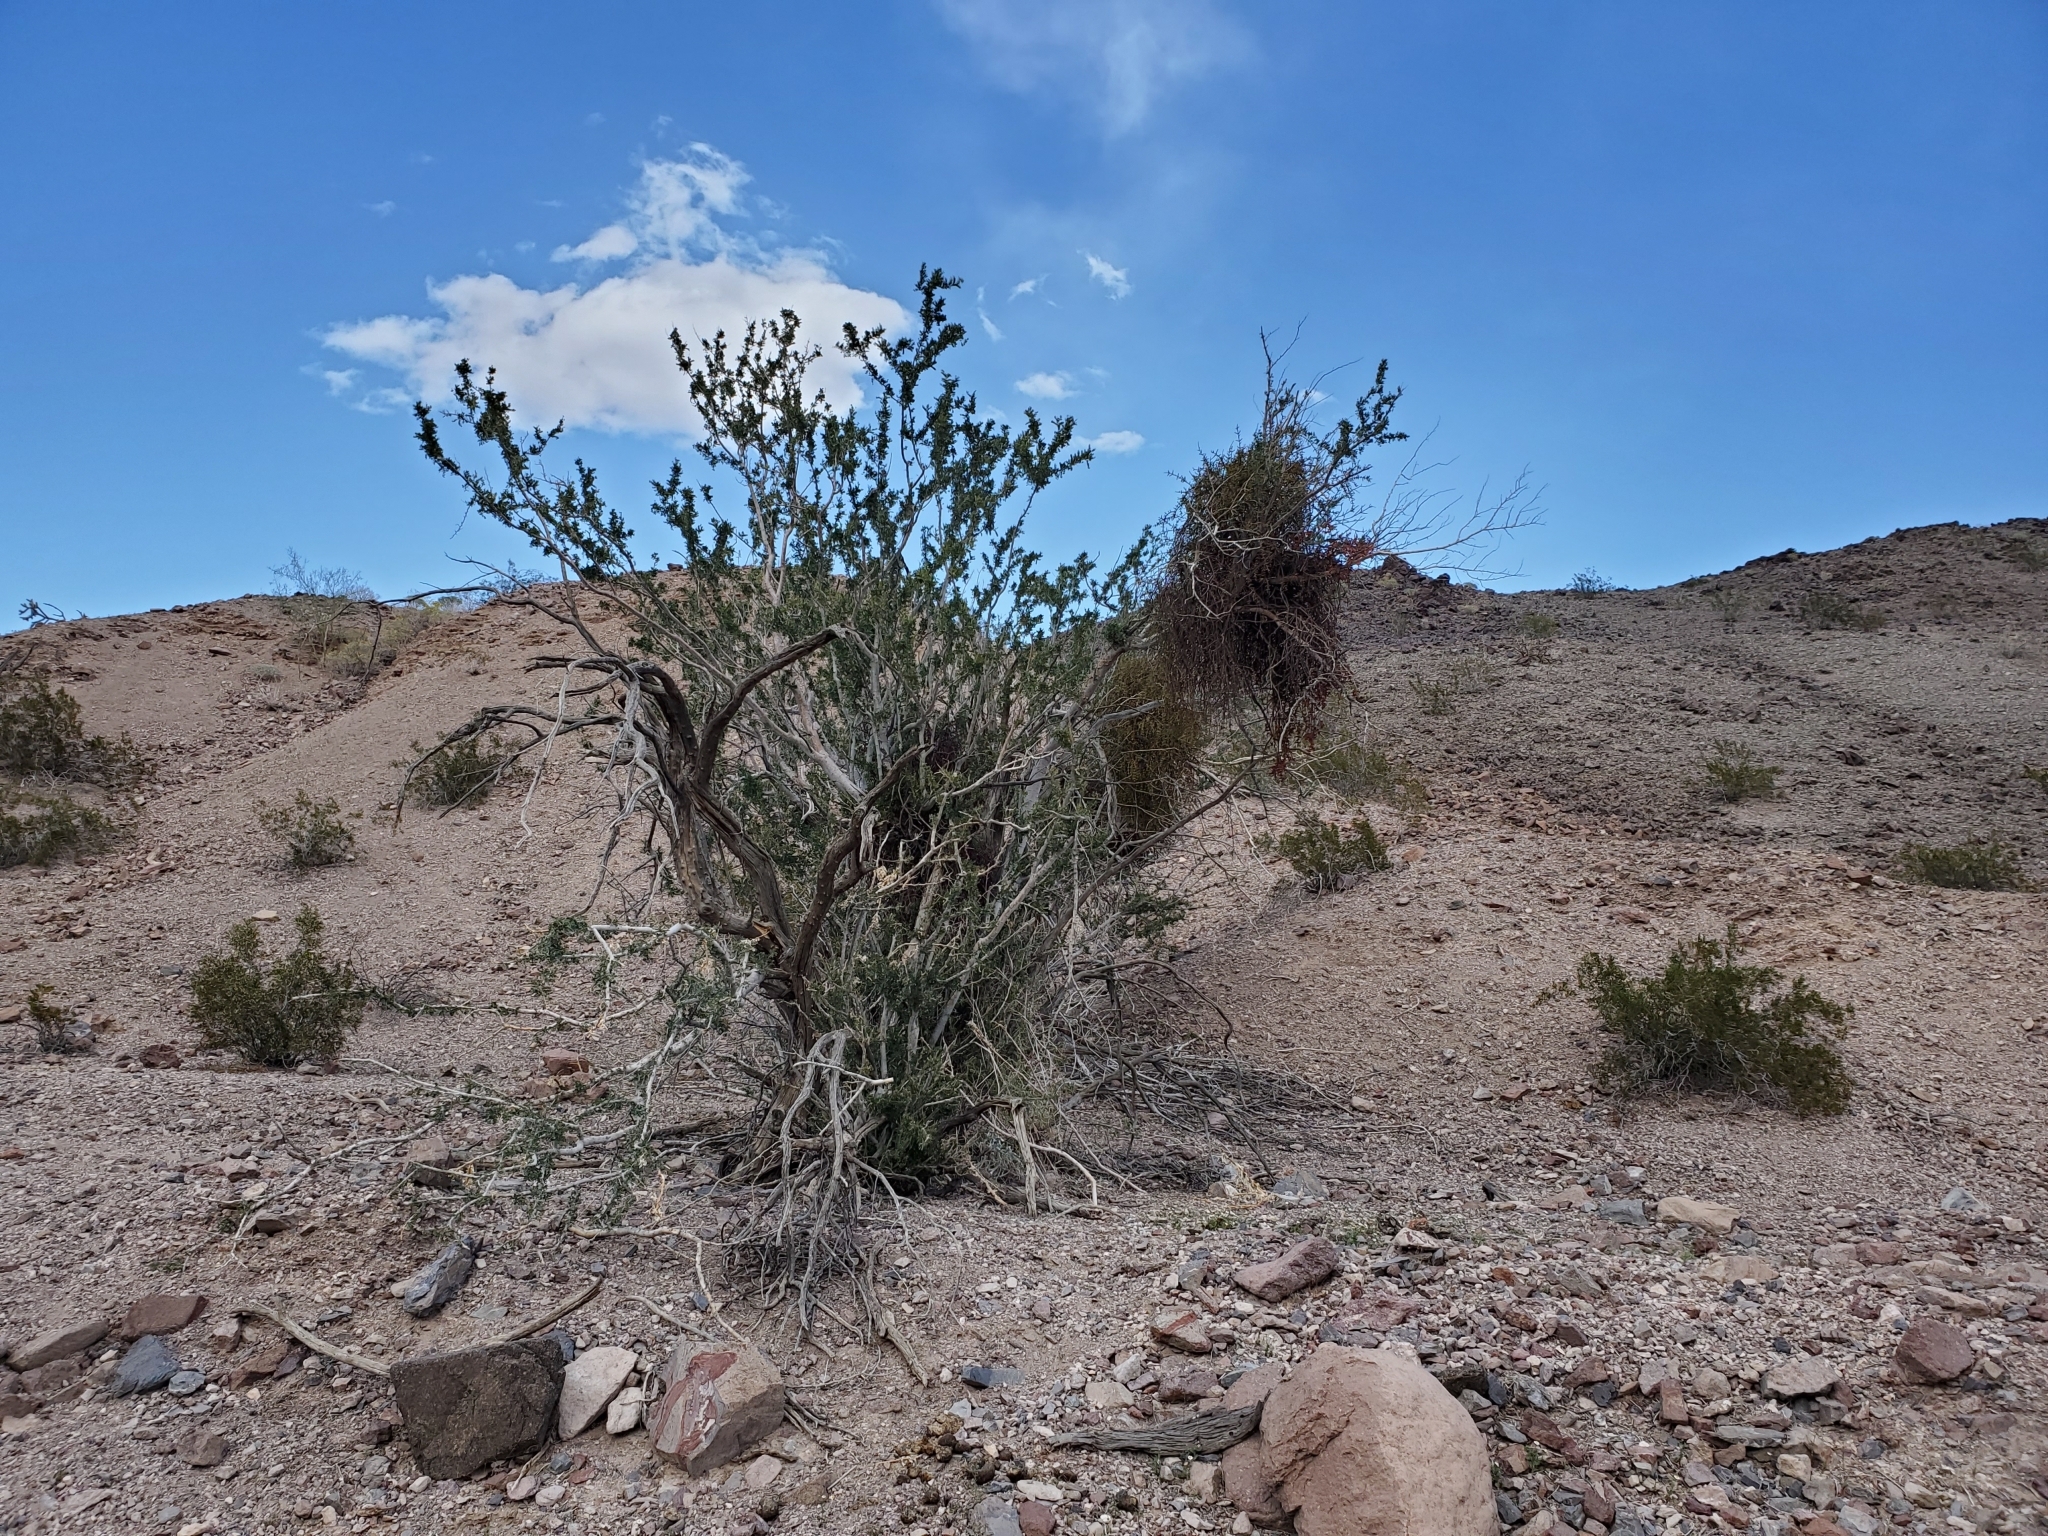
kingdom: Plantae
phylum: Tracheophyta
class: Magnoliopsida
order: Fabales
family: Fabaceae
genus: Olneya
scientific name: Olneya tesota
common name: Desert ironwood
